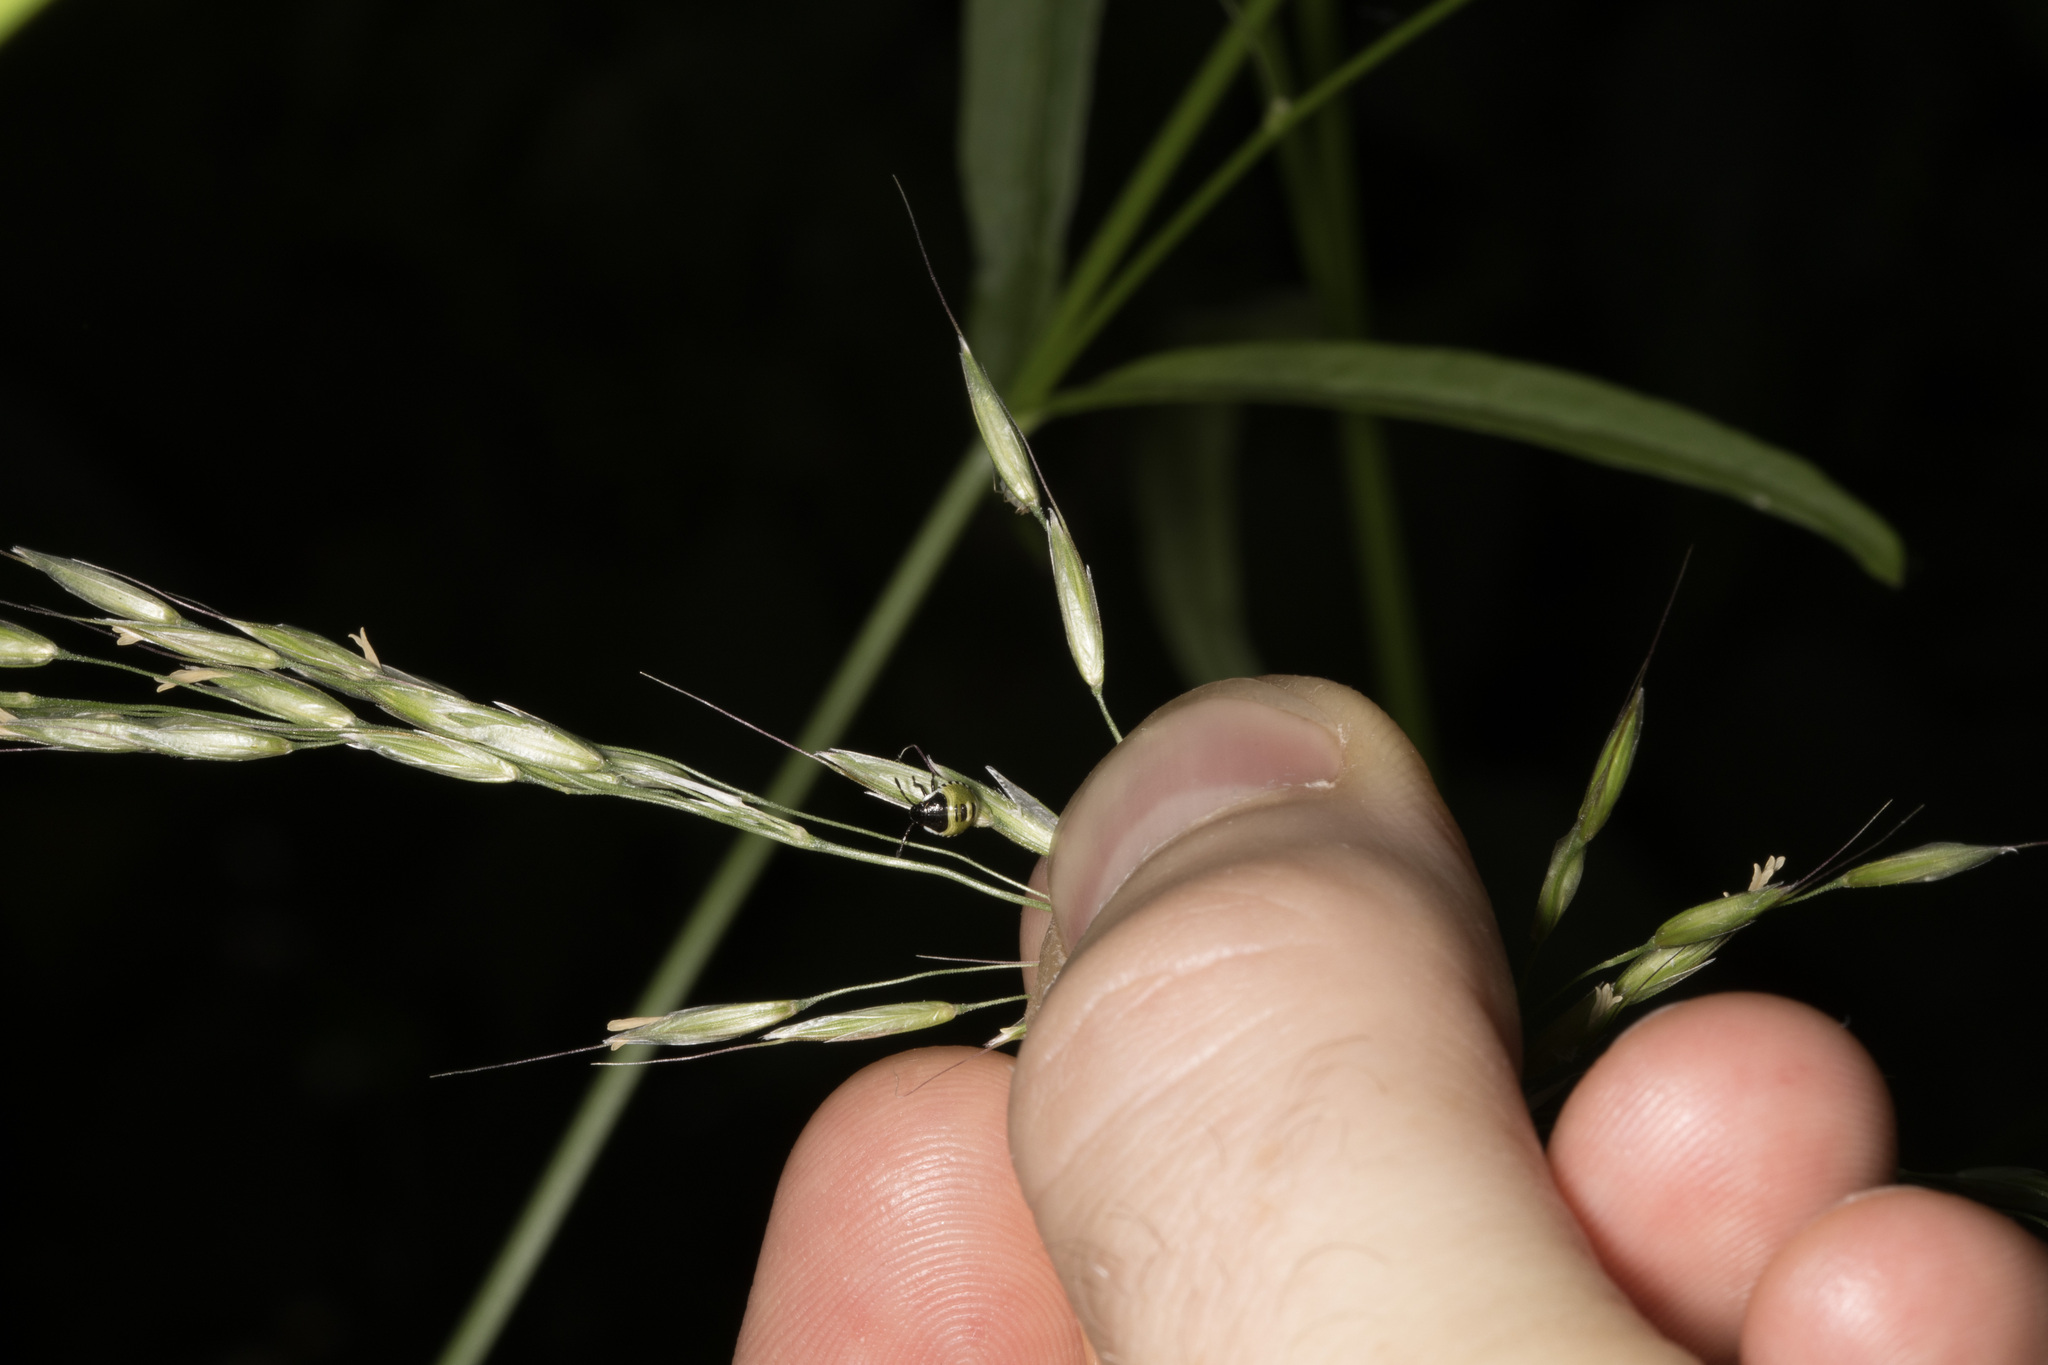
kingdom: Animalia
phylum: Arthropoda
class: Insecta
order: Hemiptera
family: Pentatomidae
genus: Palomena
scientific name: Palomena prasina
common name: Green shieldbug
